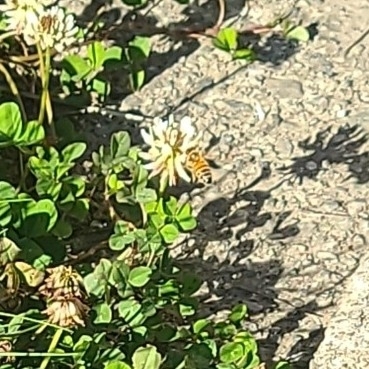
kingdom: Animalia
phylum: Arthropoda
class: Insecta
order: Hymenoptera
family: Apidae
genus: Apis
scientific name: Apis mellifera
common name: Honey bee
